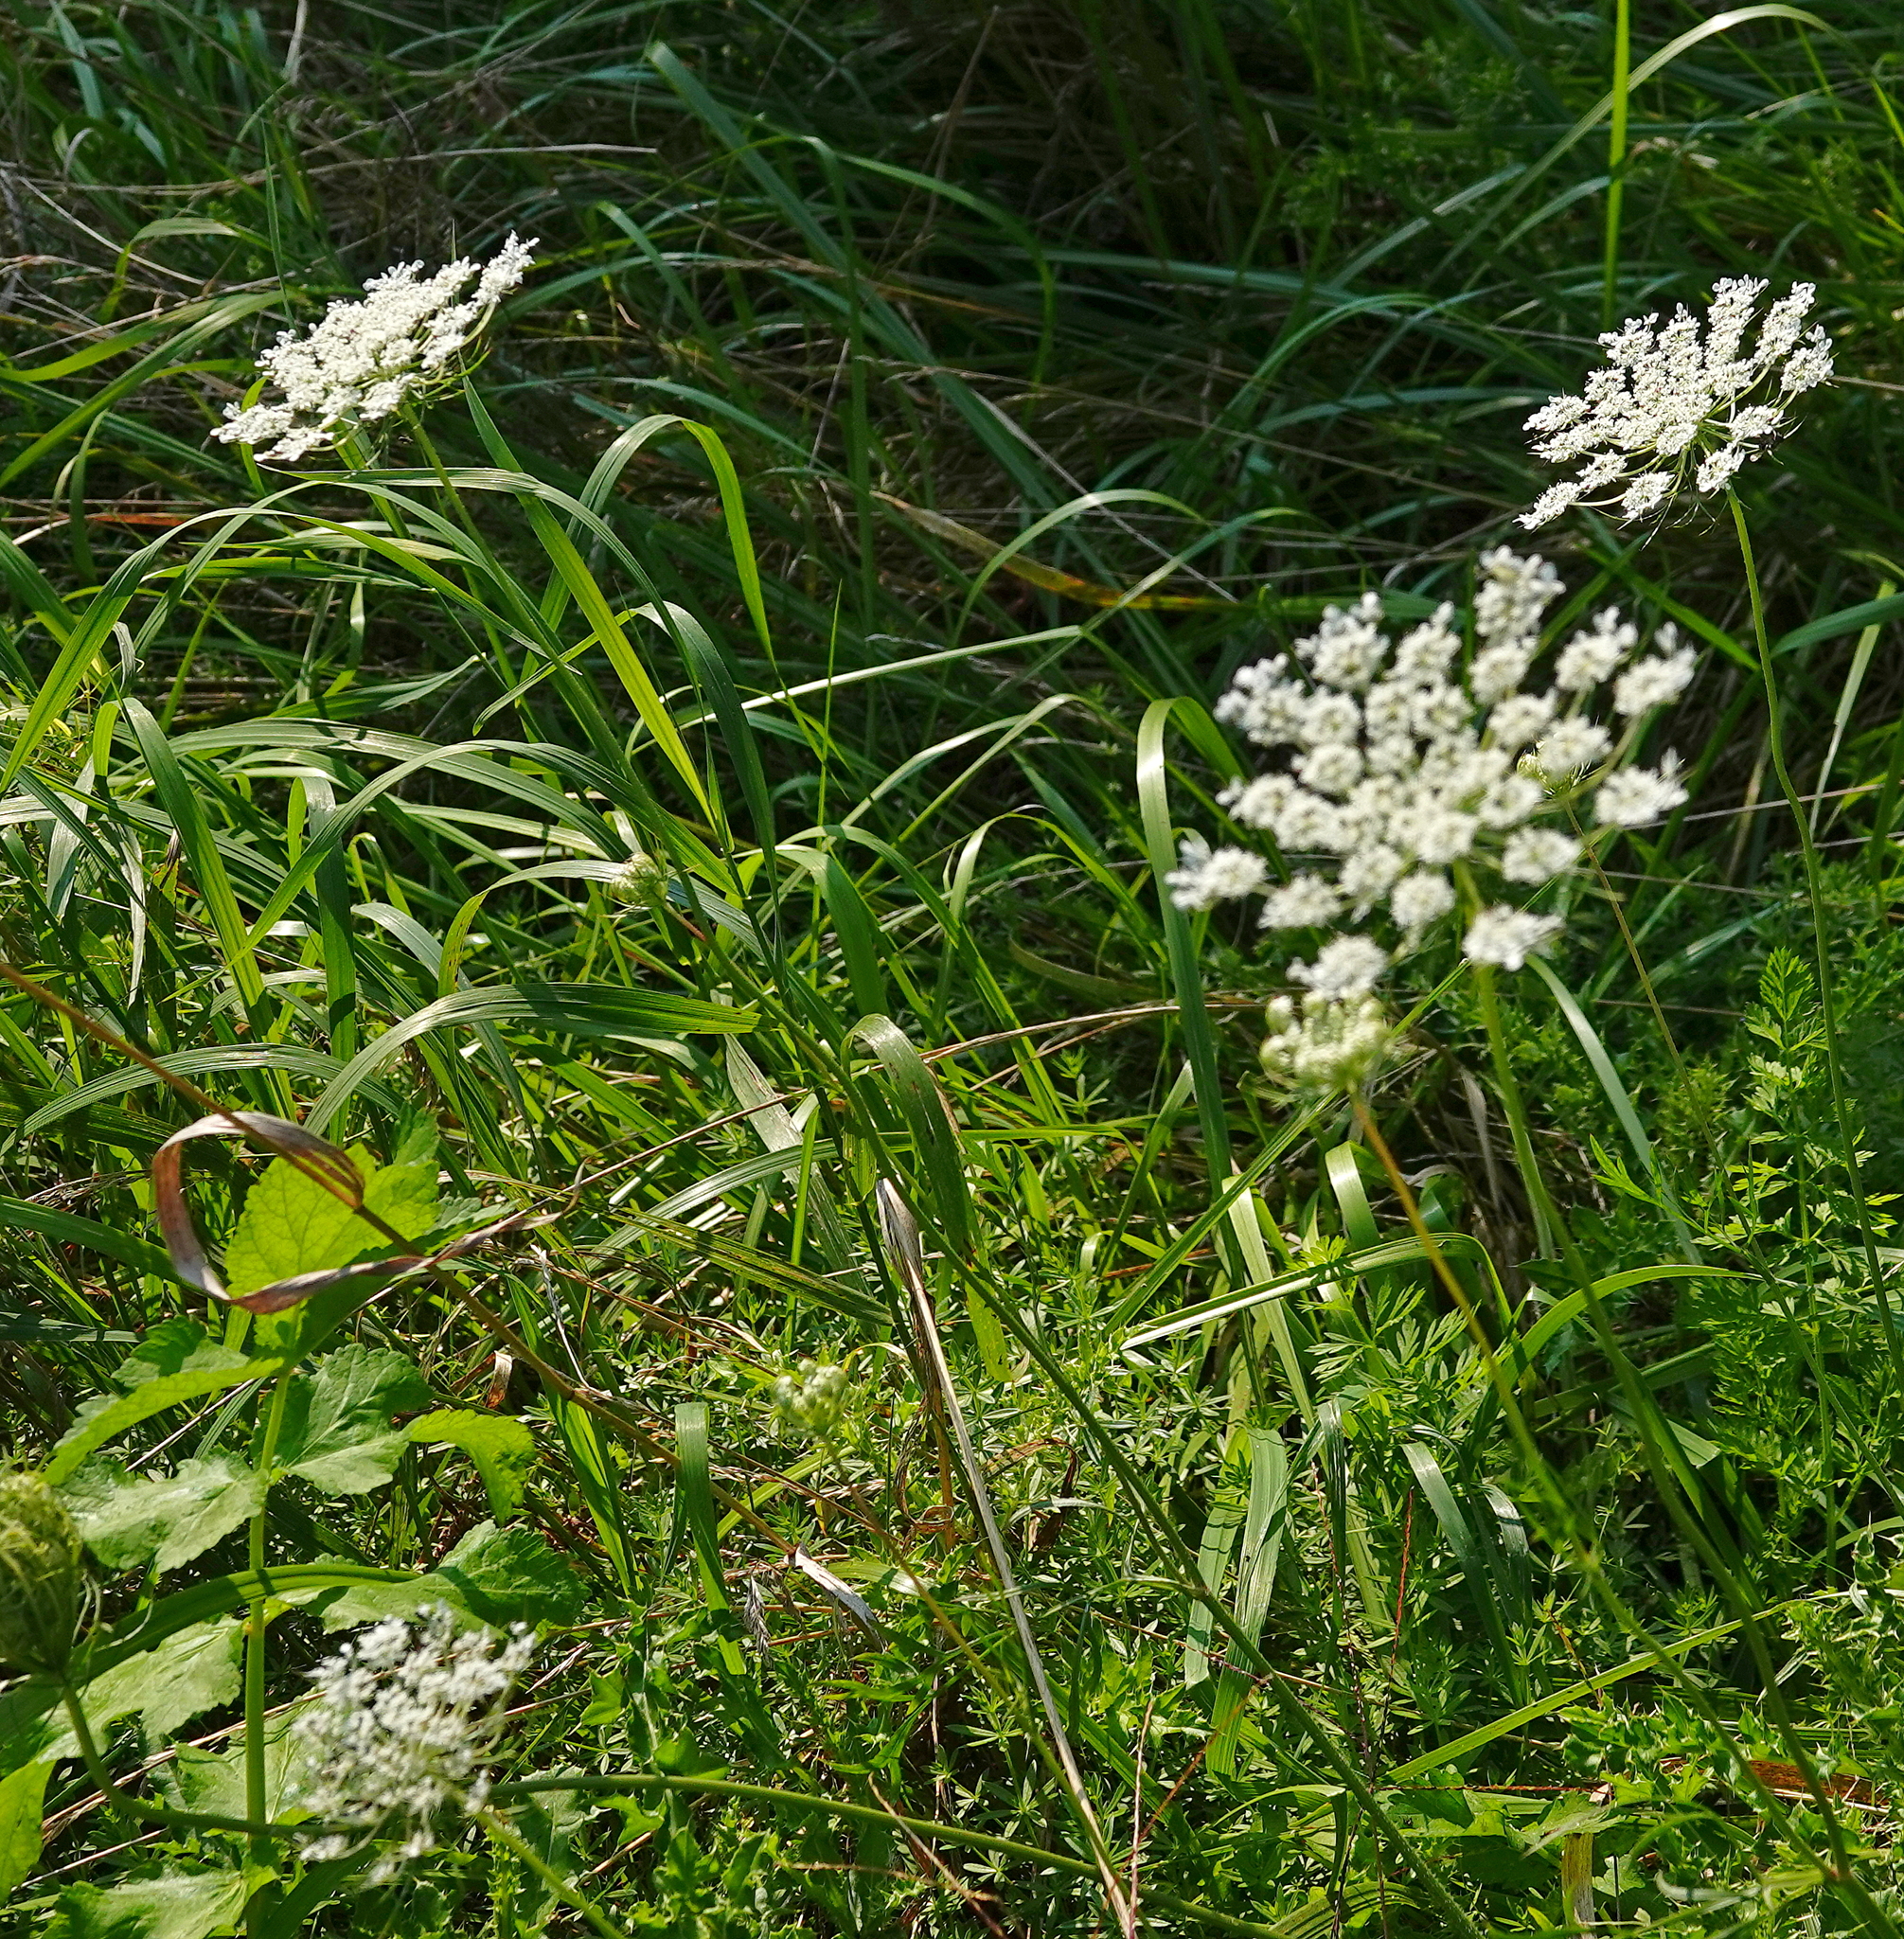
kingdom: Plantae
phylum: Tracheophyta
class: Magnoliopsida
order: Apiales
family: Apiaceae
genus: Daucus
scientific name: Daucus carota
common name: Wild carrot
